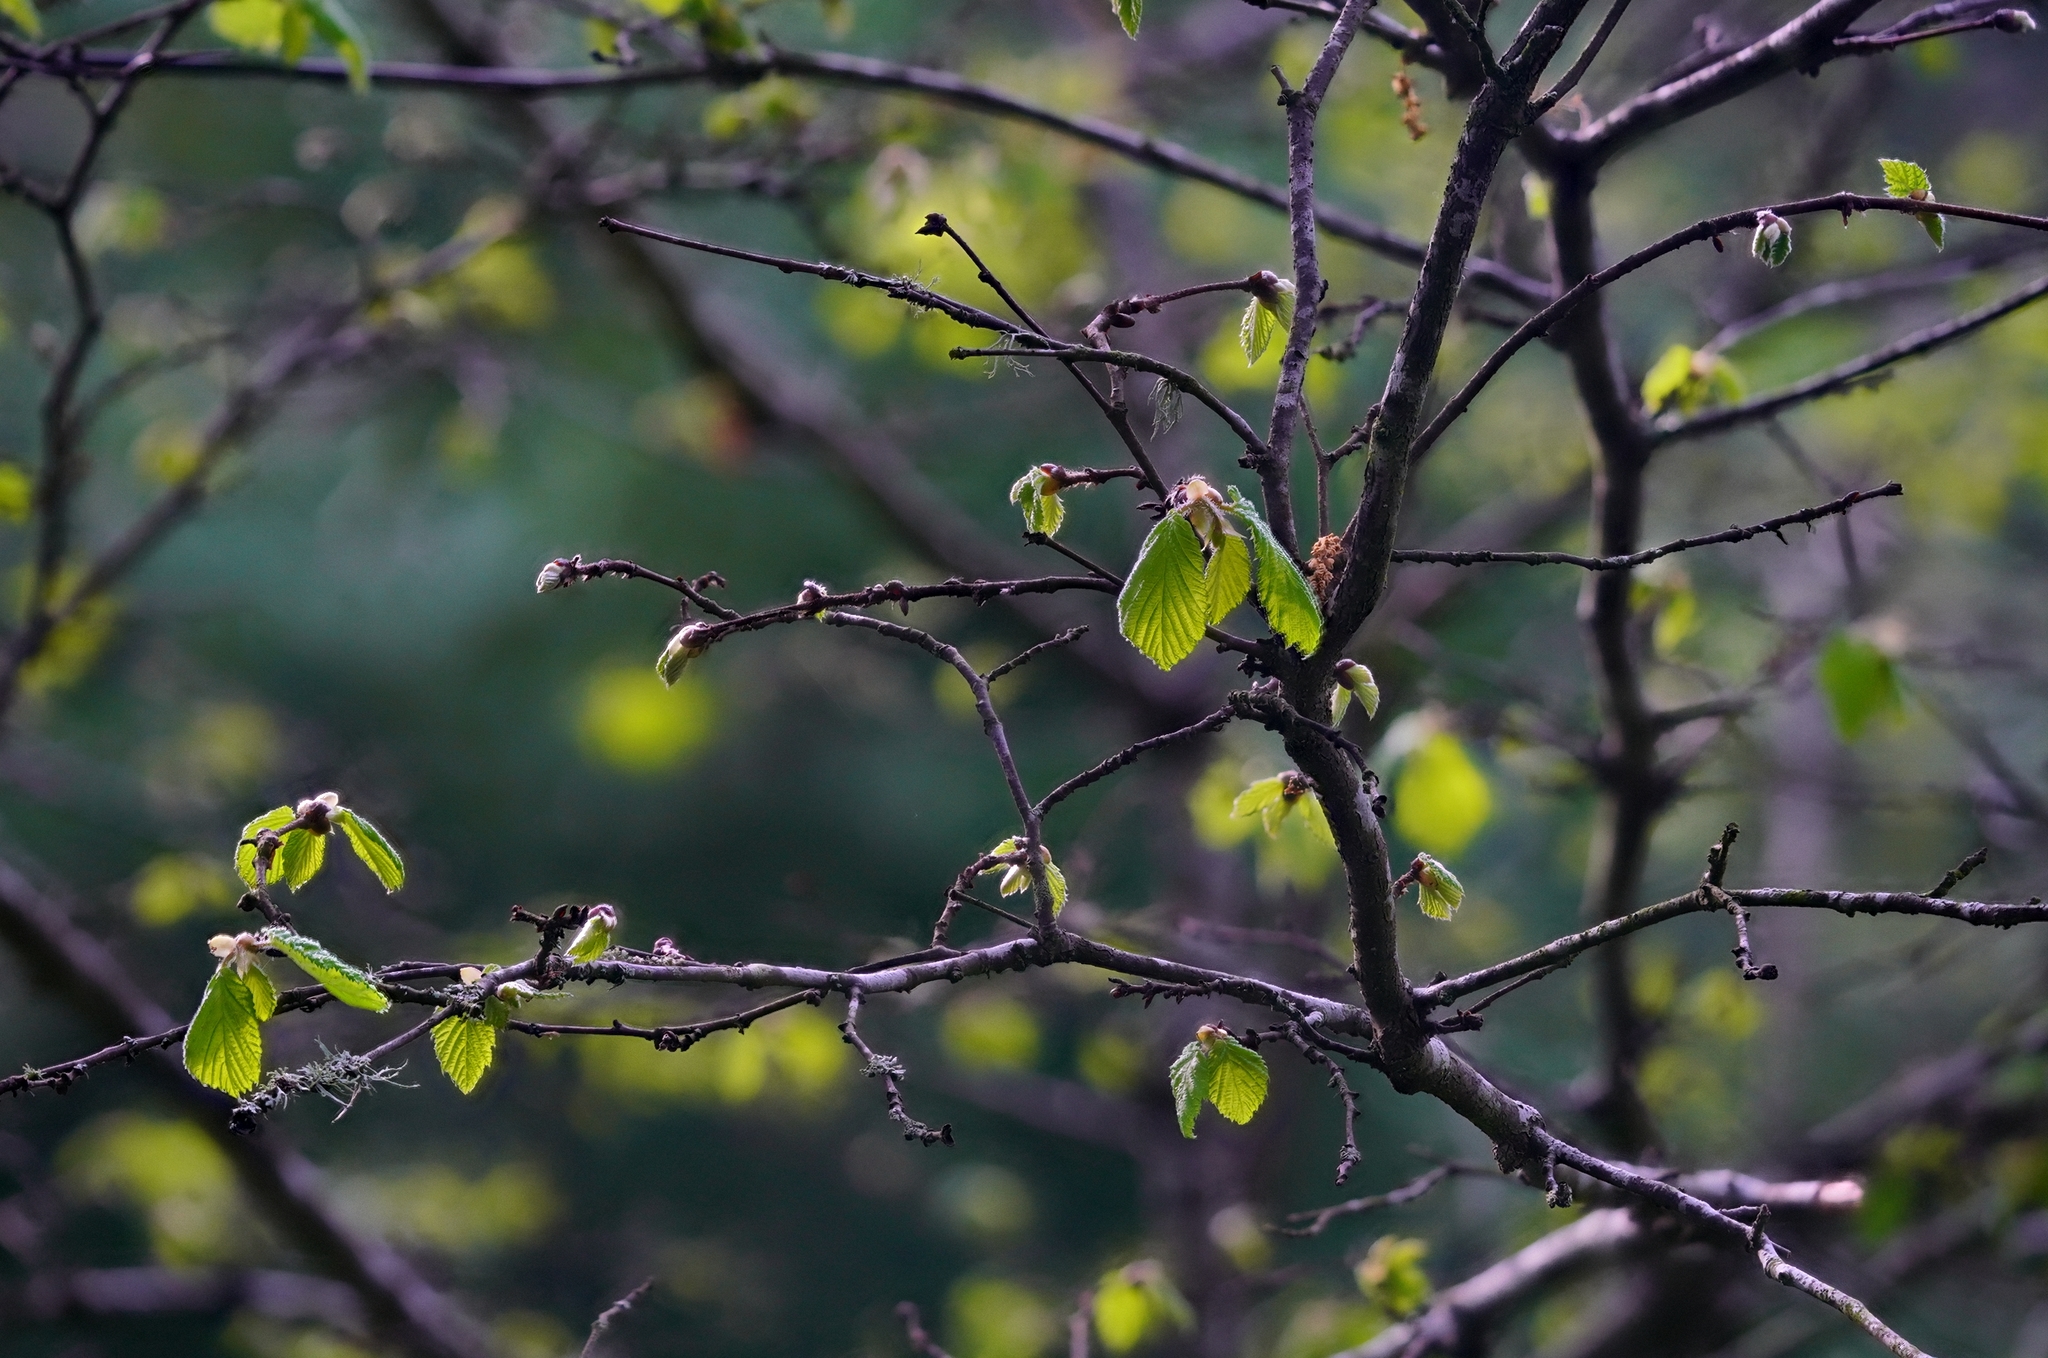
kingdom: Plantae
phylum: Tracheophyta
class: Magnoliopsida
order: Fagales
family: Betulaceae
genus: Corylus
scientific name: Corylus cornuta
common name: Beaked hazel
